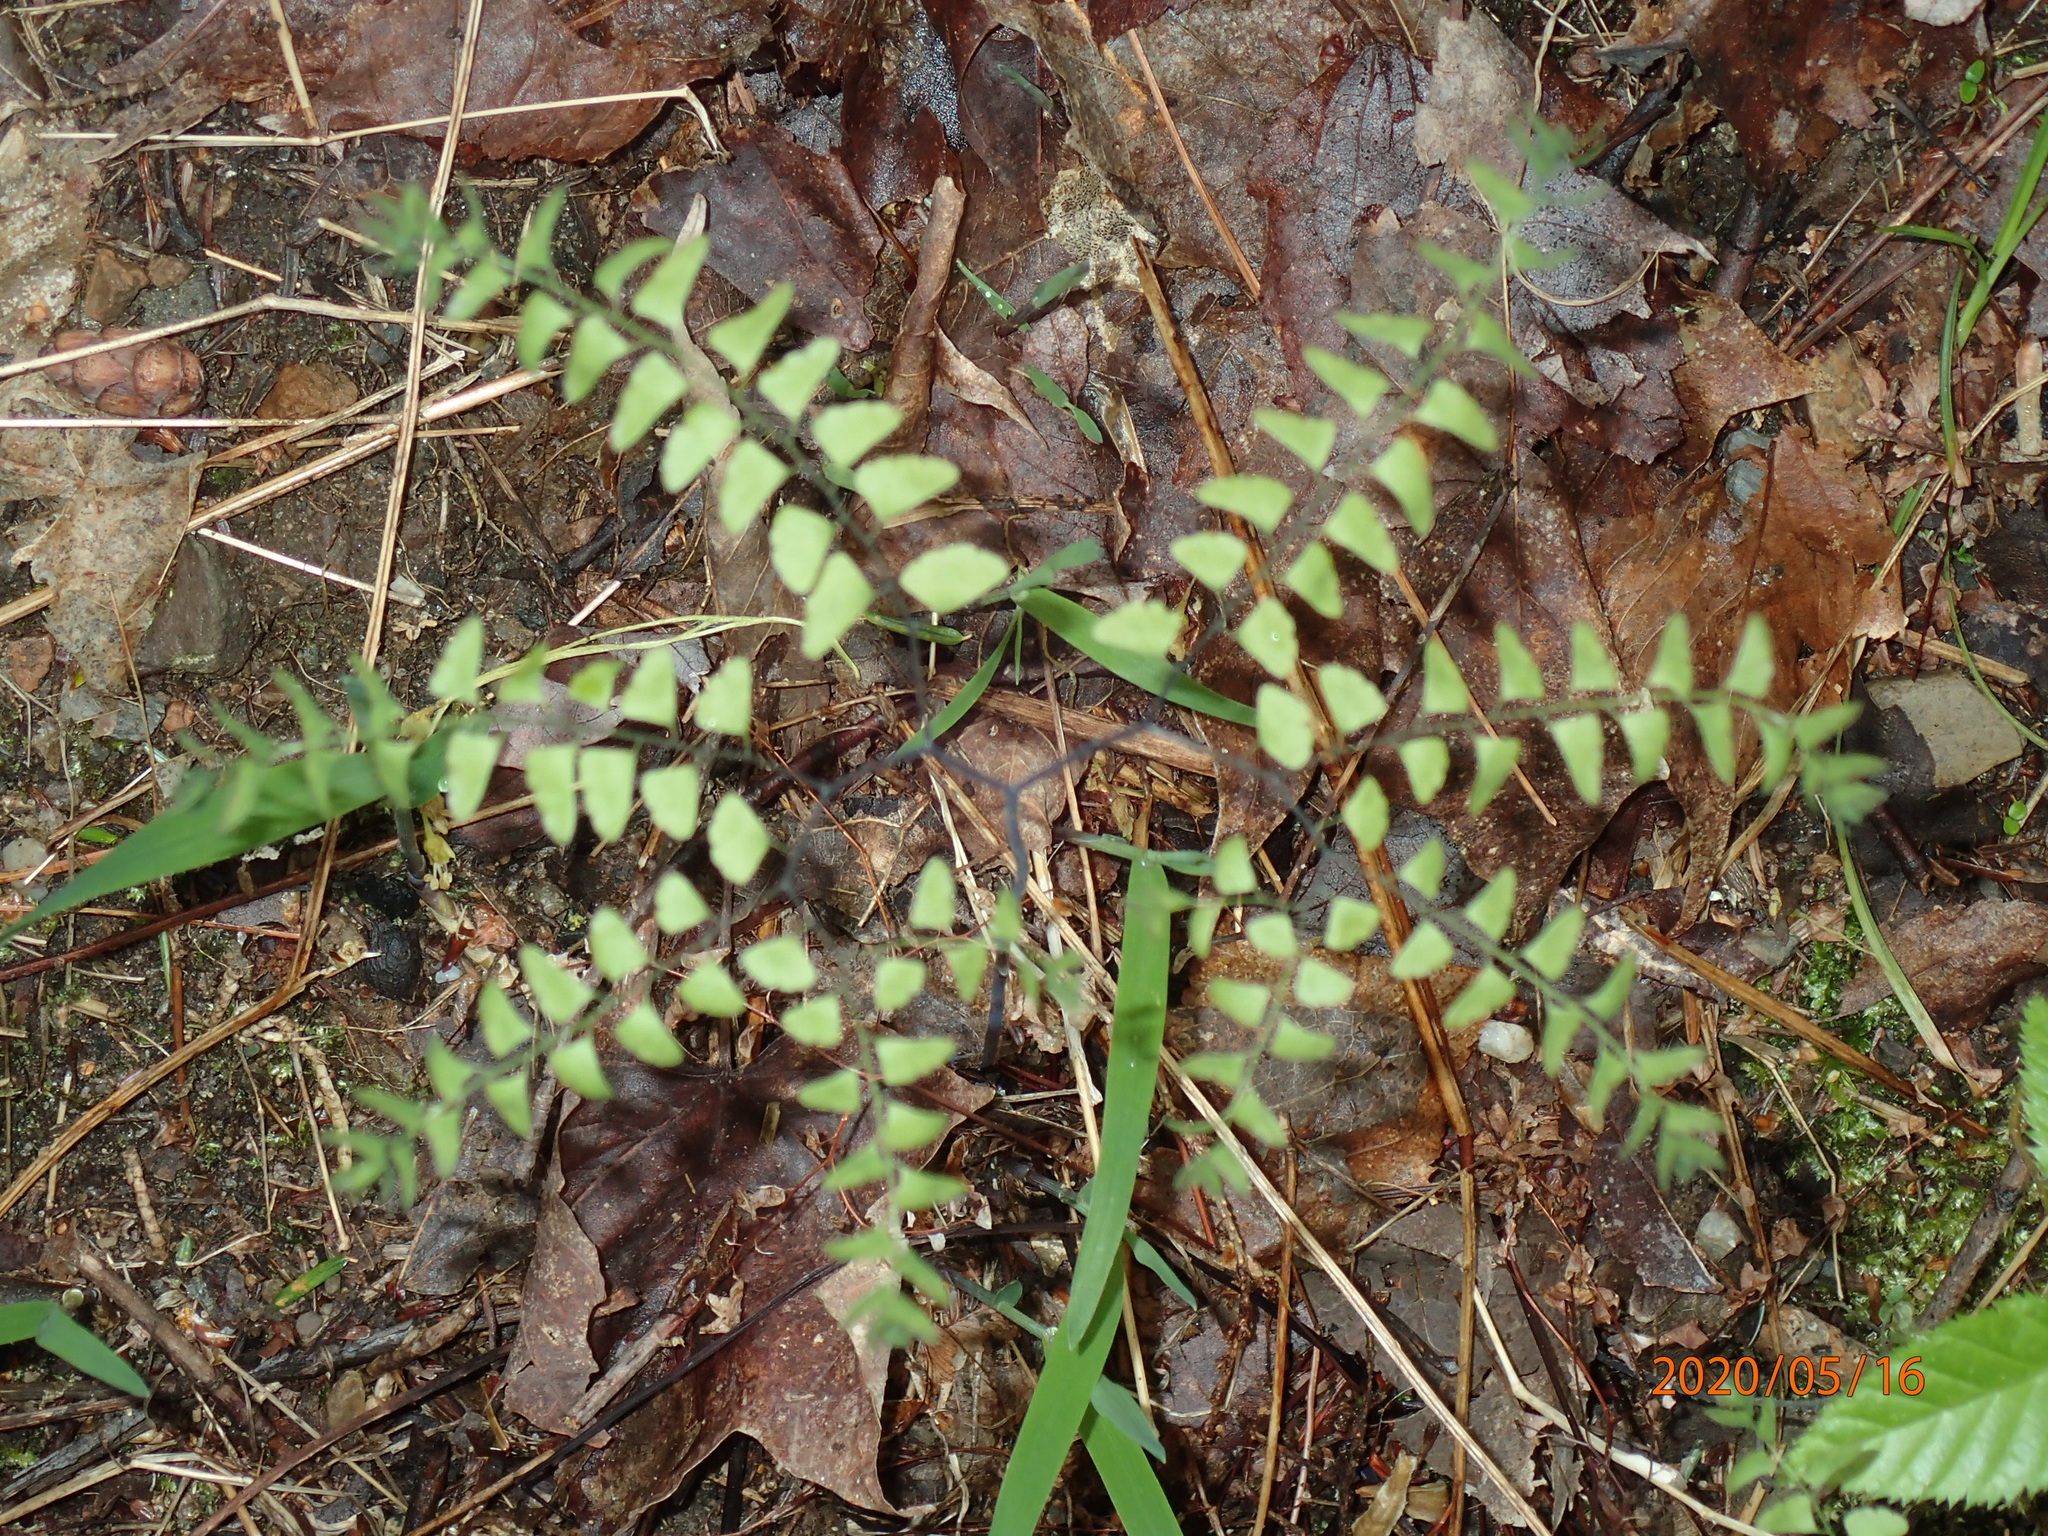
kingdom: Plantae
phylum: Tracheophyta
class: Polypodiopsida
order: Polypodiales
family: Pteridaceae
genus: Adiantum
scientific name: Adiantum pedatum
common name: Five-finger fern
